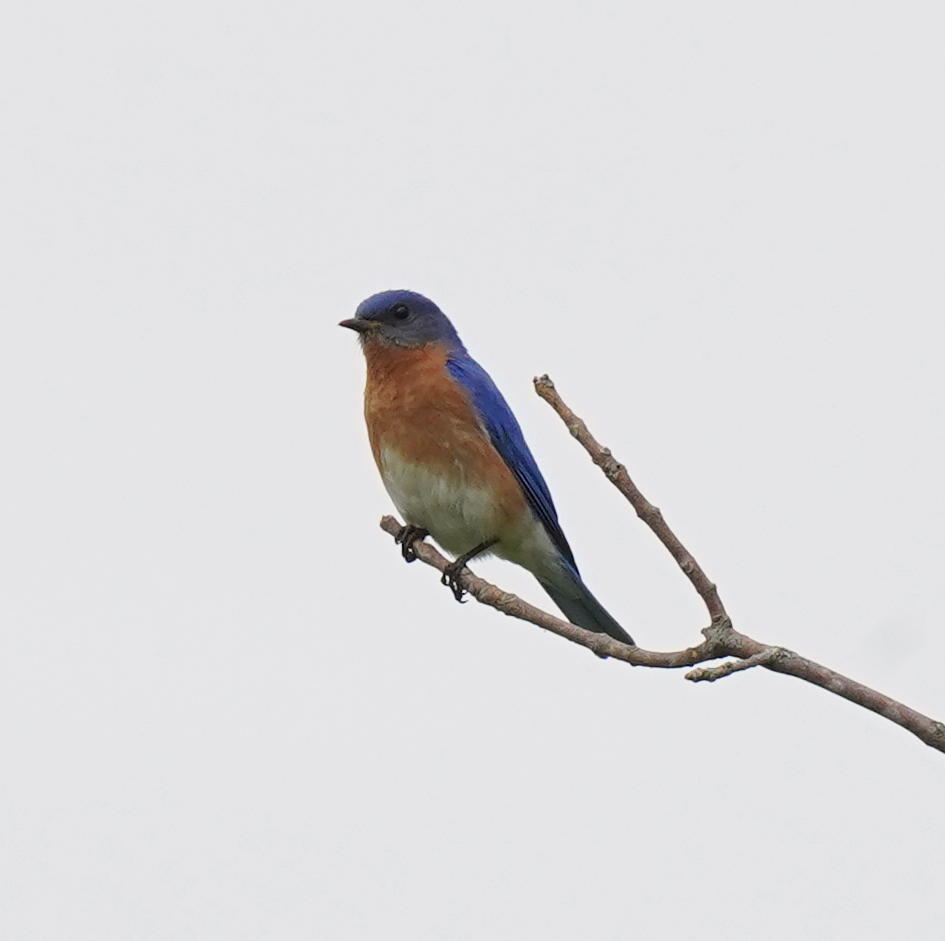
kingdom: Animalia
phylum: Chordata
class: Aves
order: Passeriformes
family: Turdidae
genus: Sialia
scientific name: Sialia sialis
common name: Eastern bluebird
